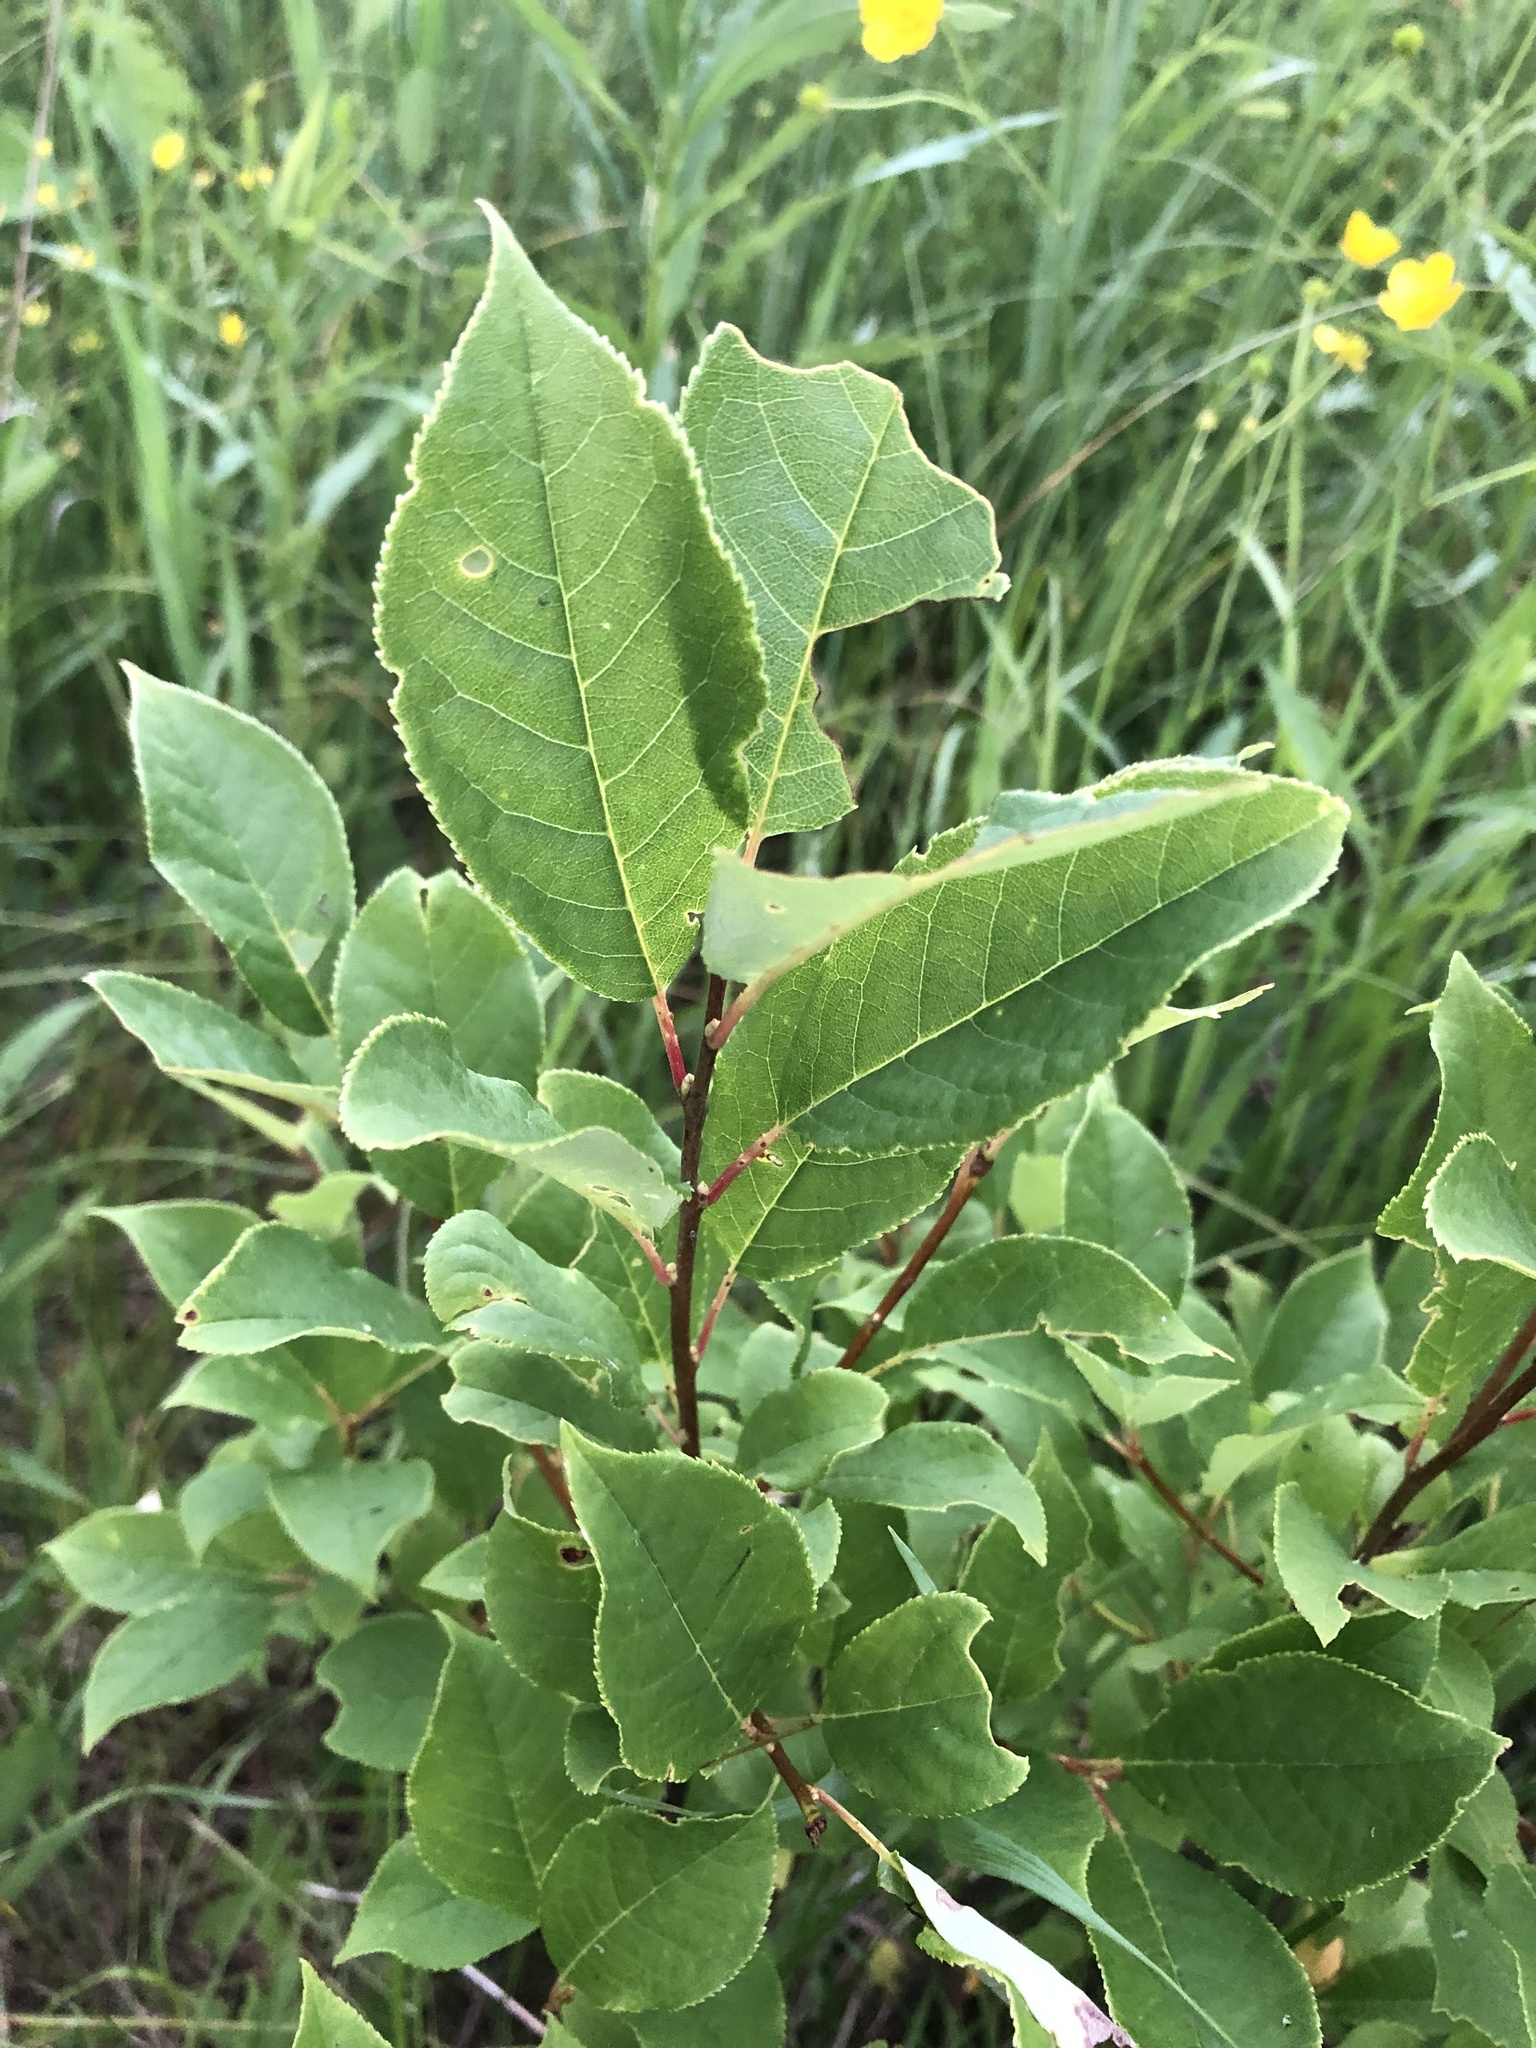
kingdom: Plantae
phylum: Tracheophyta
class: Magnoliopsida
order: Rosales
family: Rosaceae
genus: Prunus
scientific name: Prunus virginiana
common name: Chokecherry
